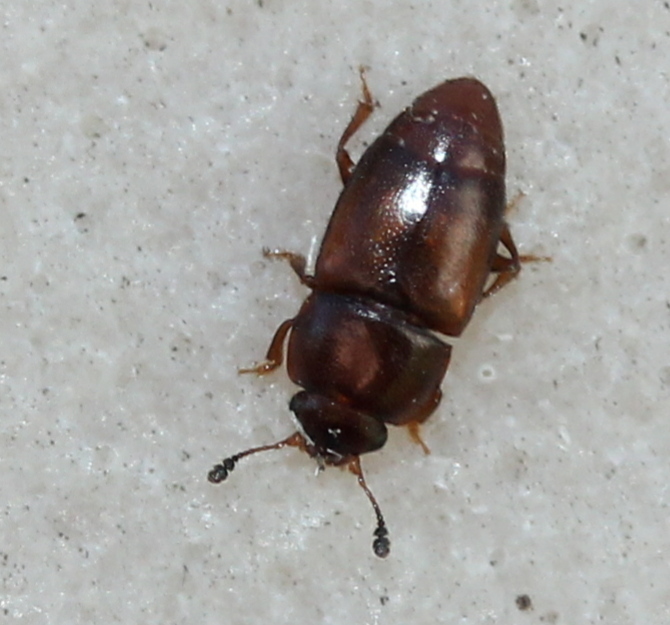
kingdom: Animalia
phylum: Arthropoda
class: Insecta
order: Coleoptera
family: Nitidulidae
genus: Carpophilus
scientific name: Carpophilus antiquus
